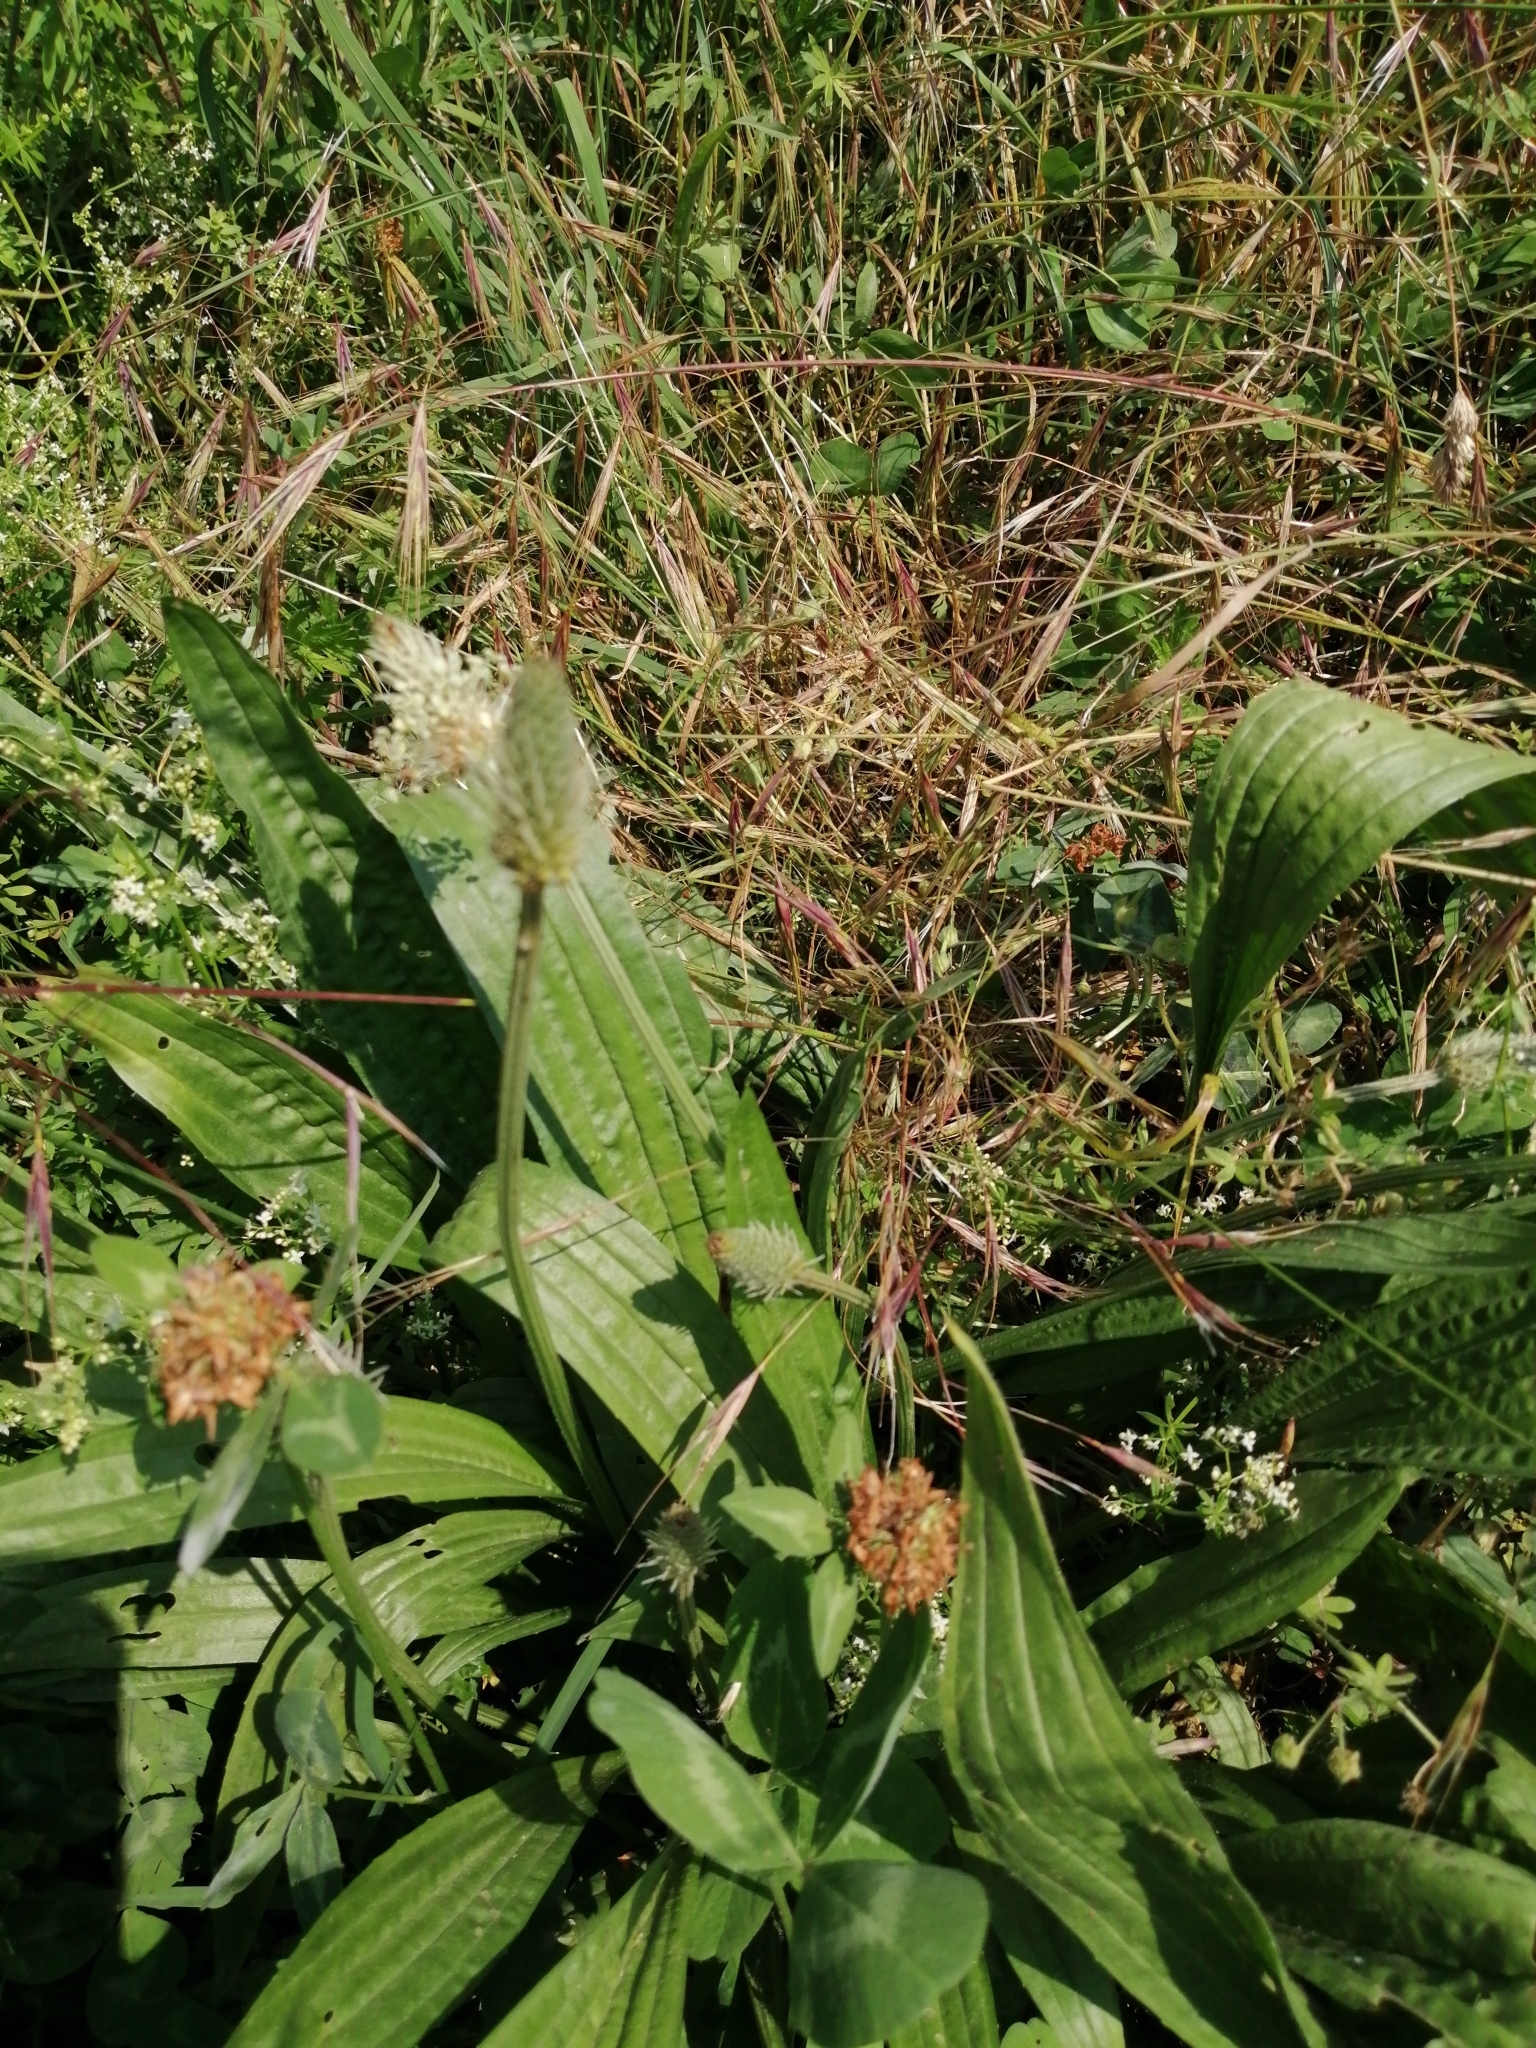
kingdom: Plantae
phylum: Tracheophyta
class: Magnoliopsida
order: Lamiales
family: Plantaginaceae
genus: Plantago
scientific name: Plantago lanceolata
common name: Ribwort plantain
